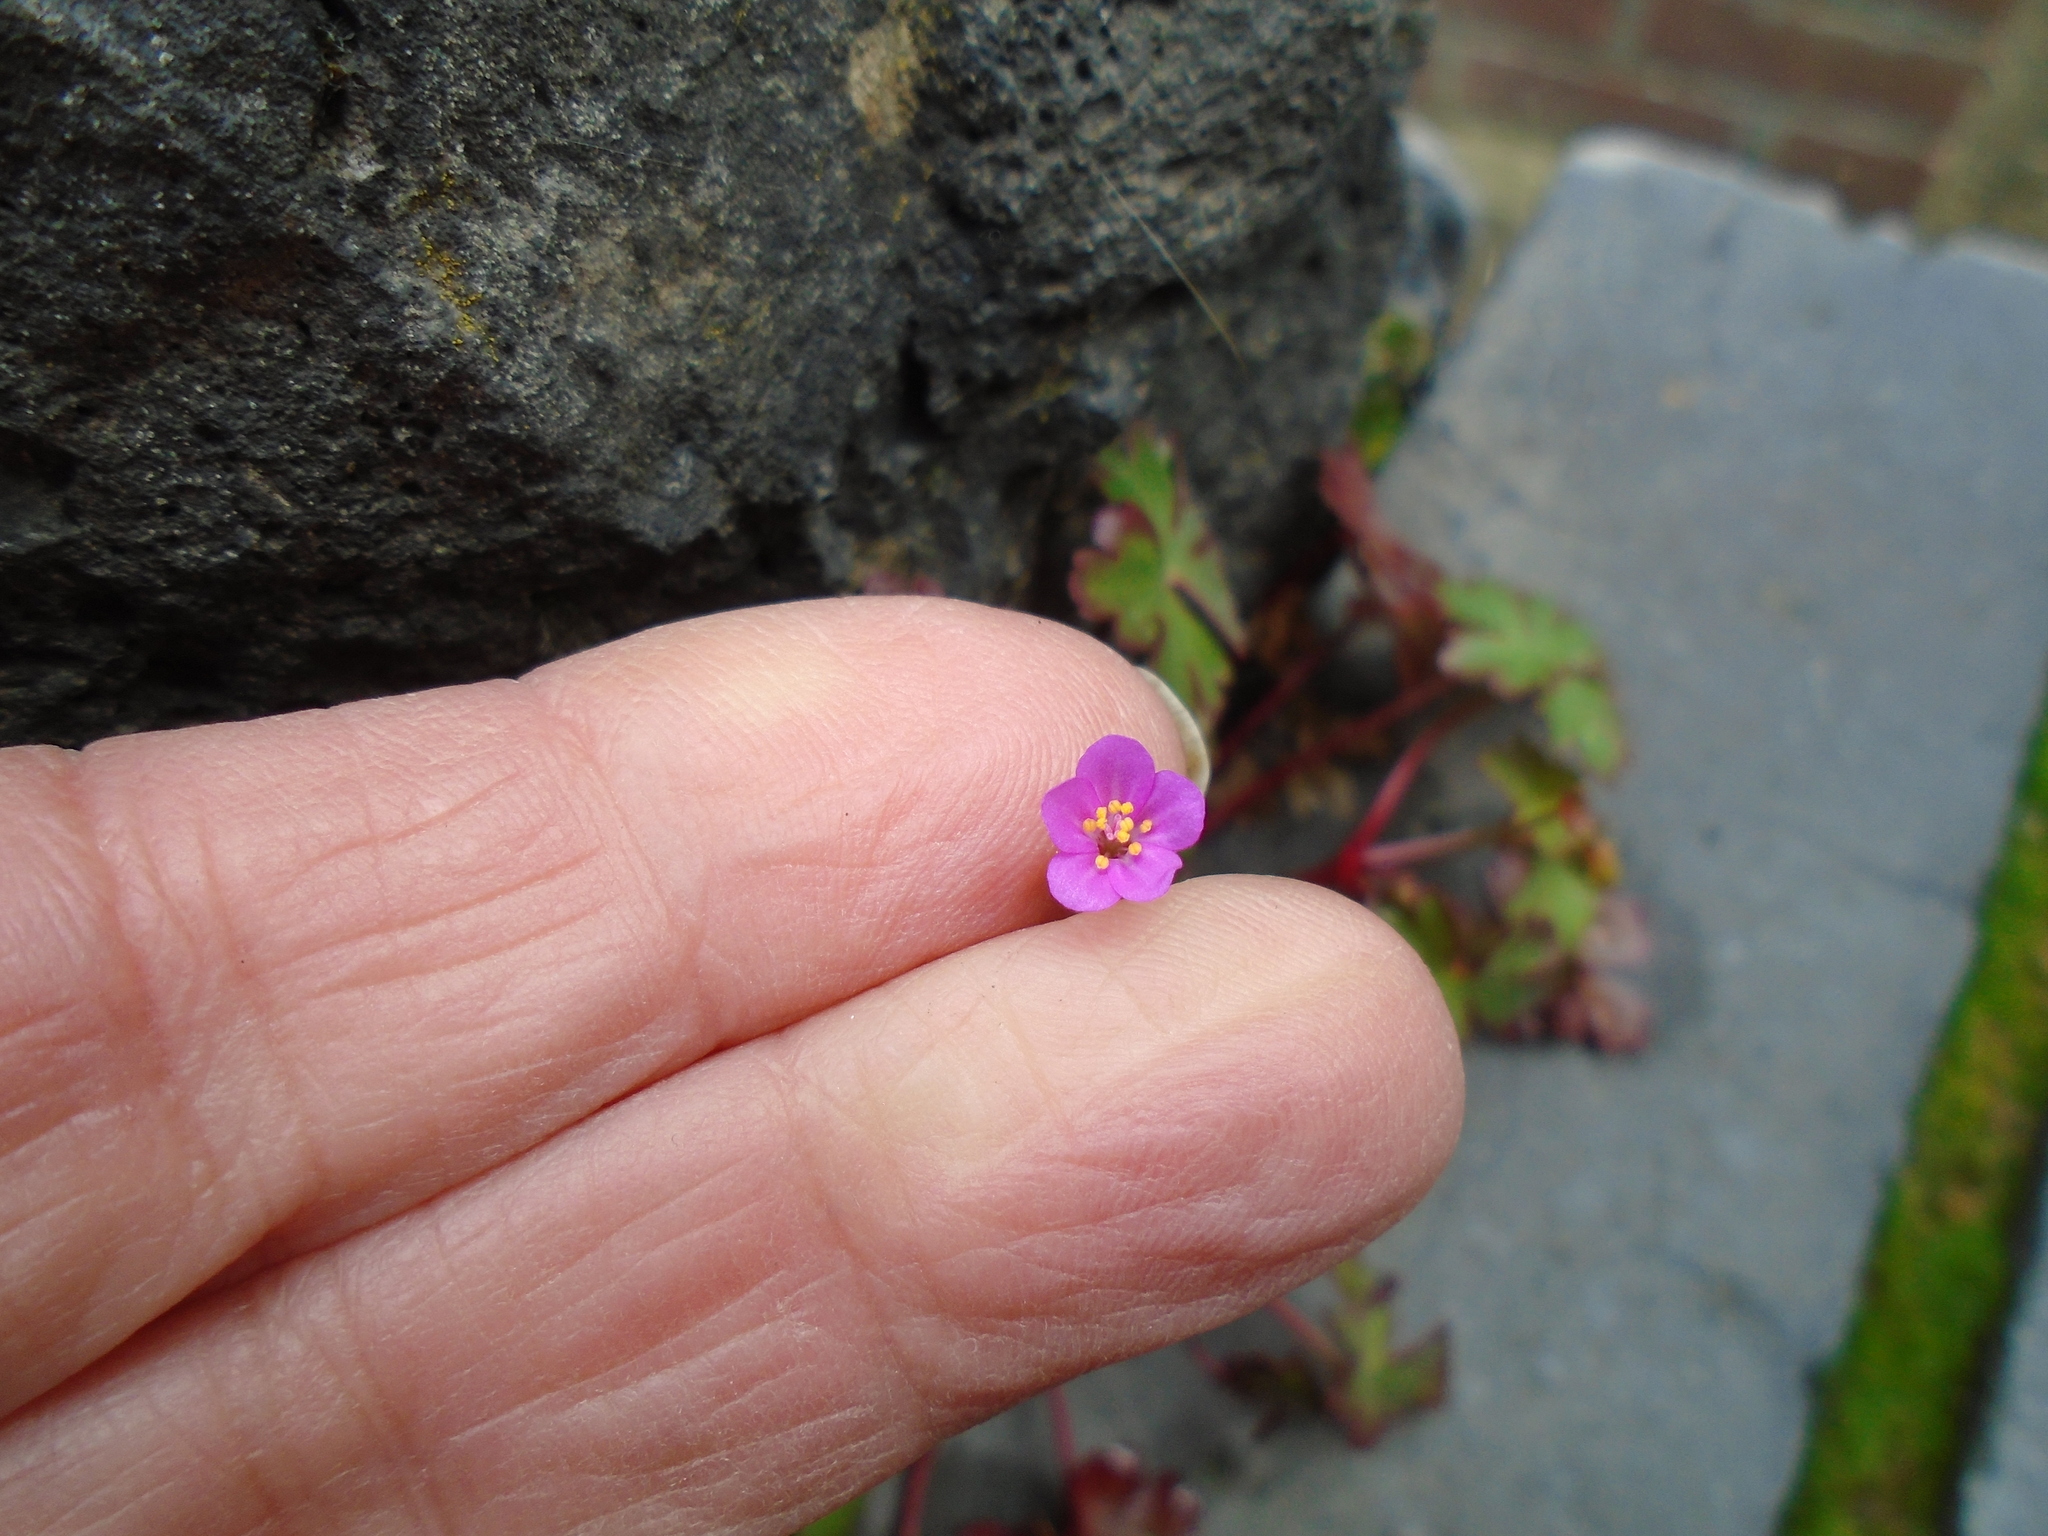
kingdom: Plantae
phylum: Tracheophyta
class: Magnoliopsida
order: Geraniales
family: Geraniaceae
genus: Geranium
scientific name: Geranium lucidum
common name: Shining crane's-bill
